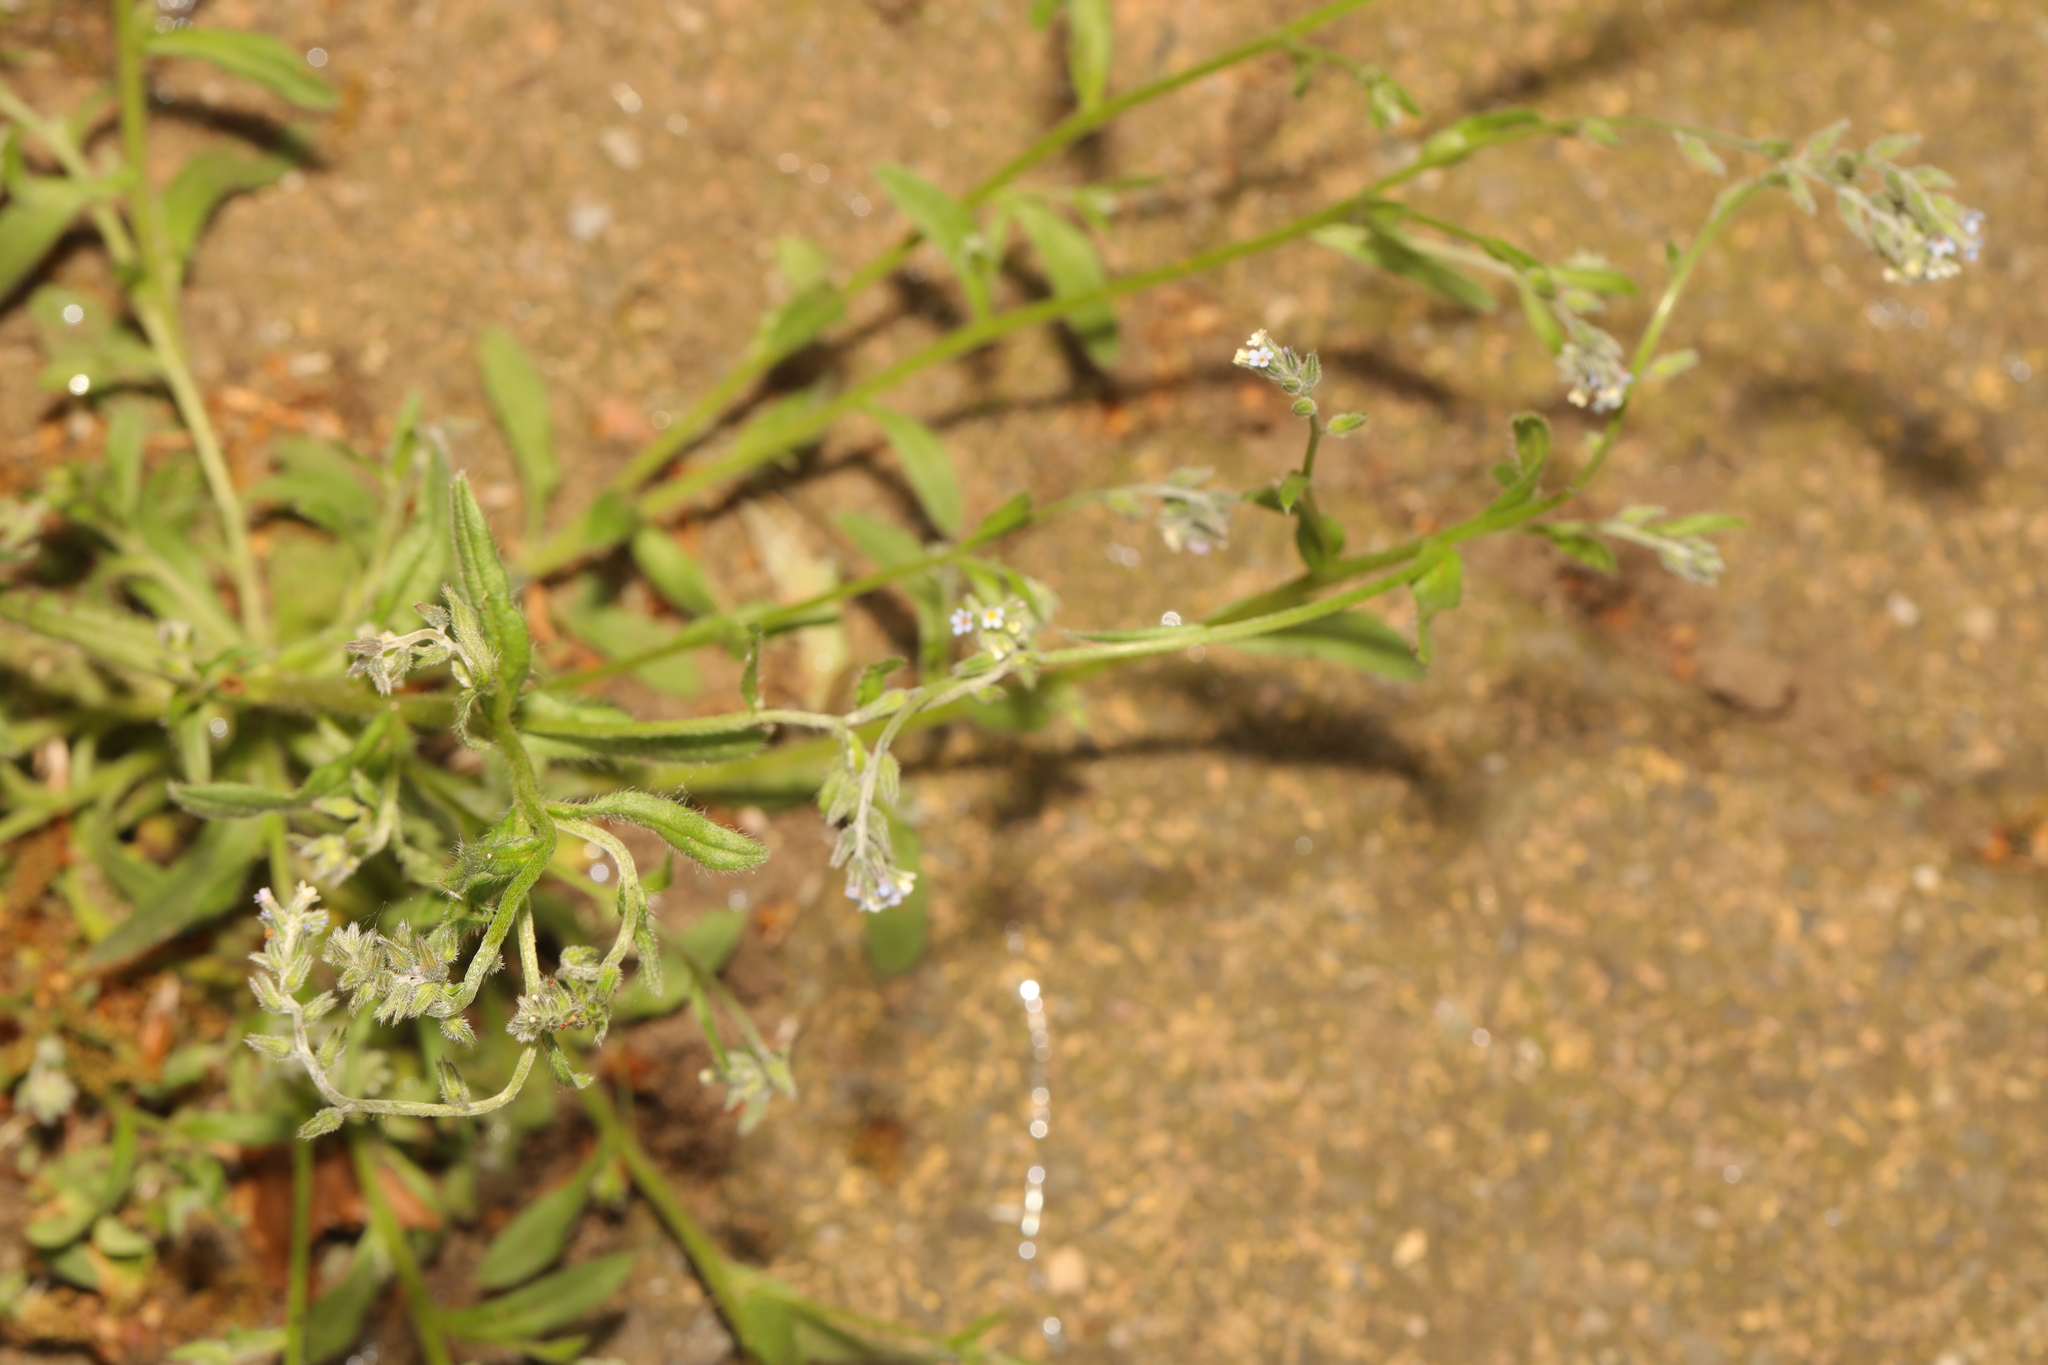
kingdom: Plantae
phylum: Tracheophyta
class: Magnoliopsida
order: Boraginales
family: Boraginaceae
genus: Myosotis
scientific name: Myosotis discolor
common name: Changing forget-me-not
